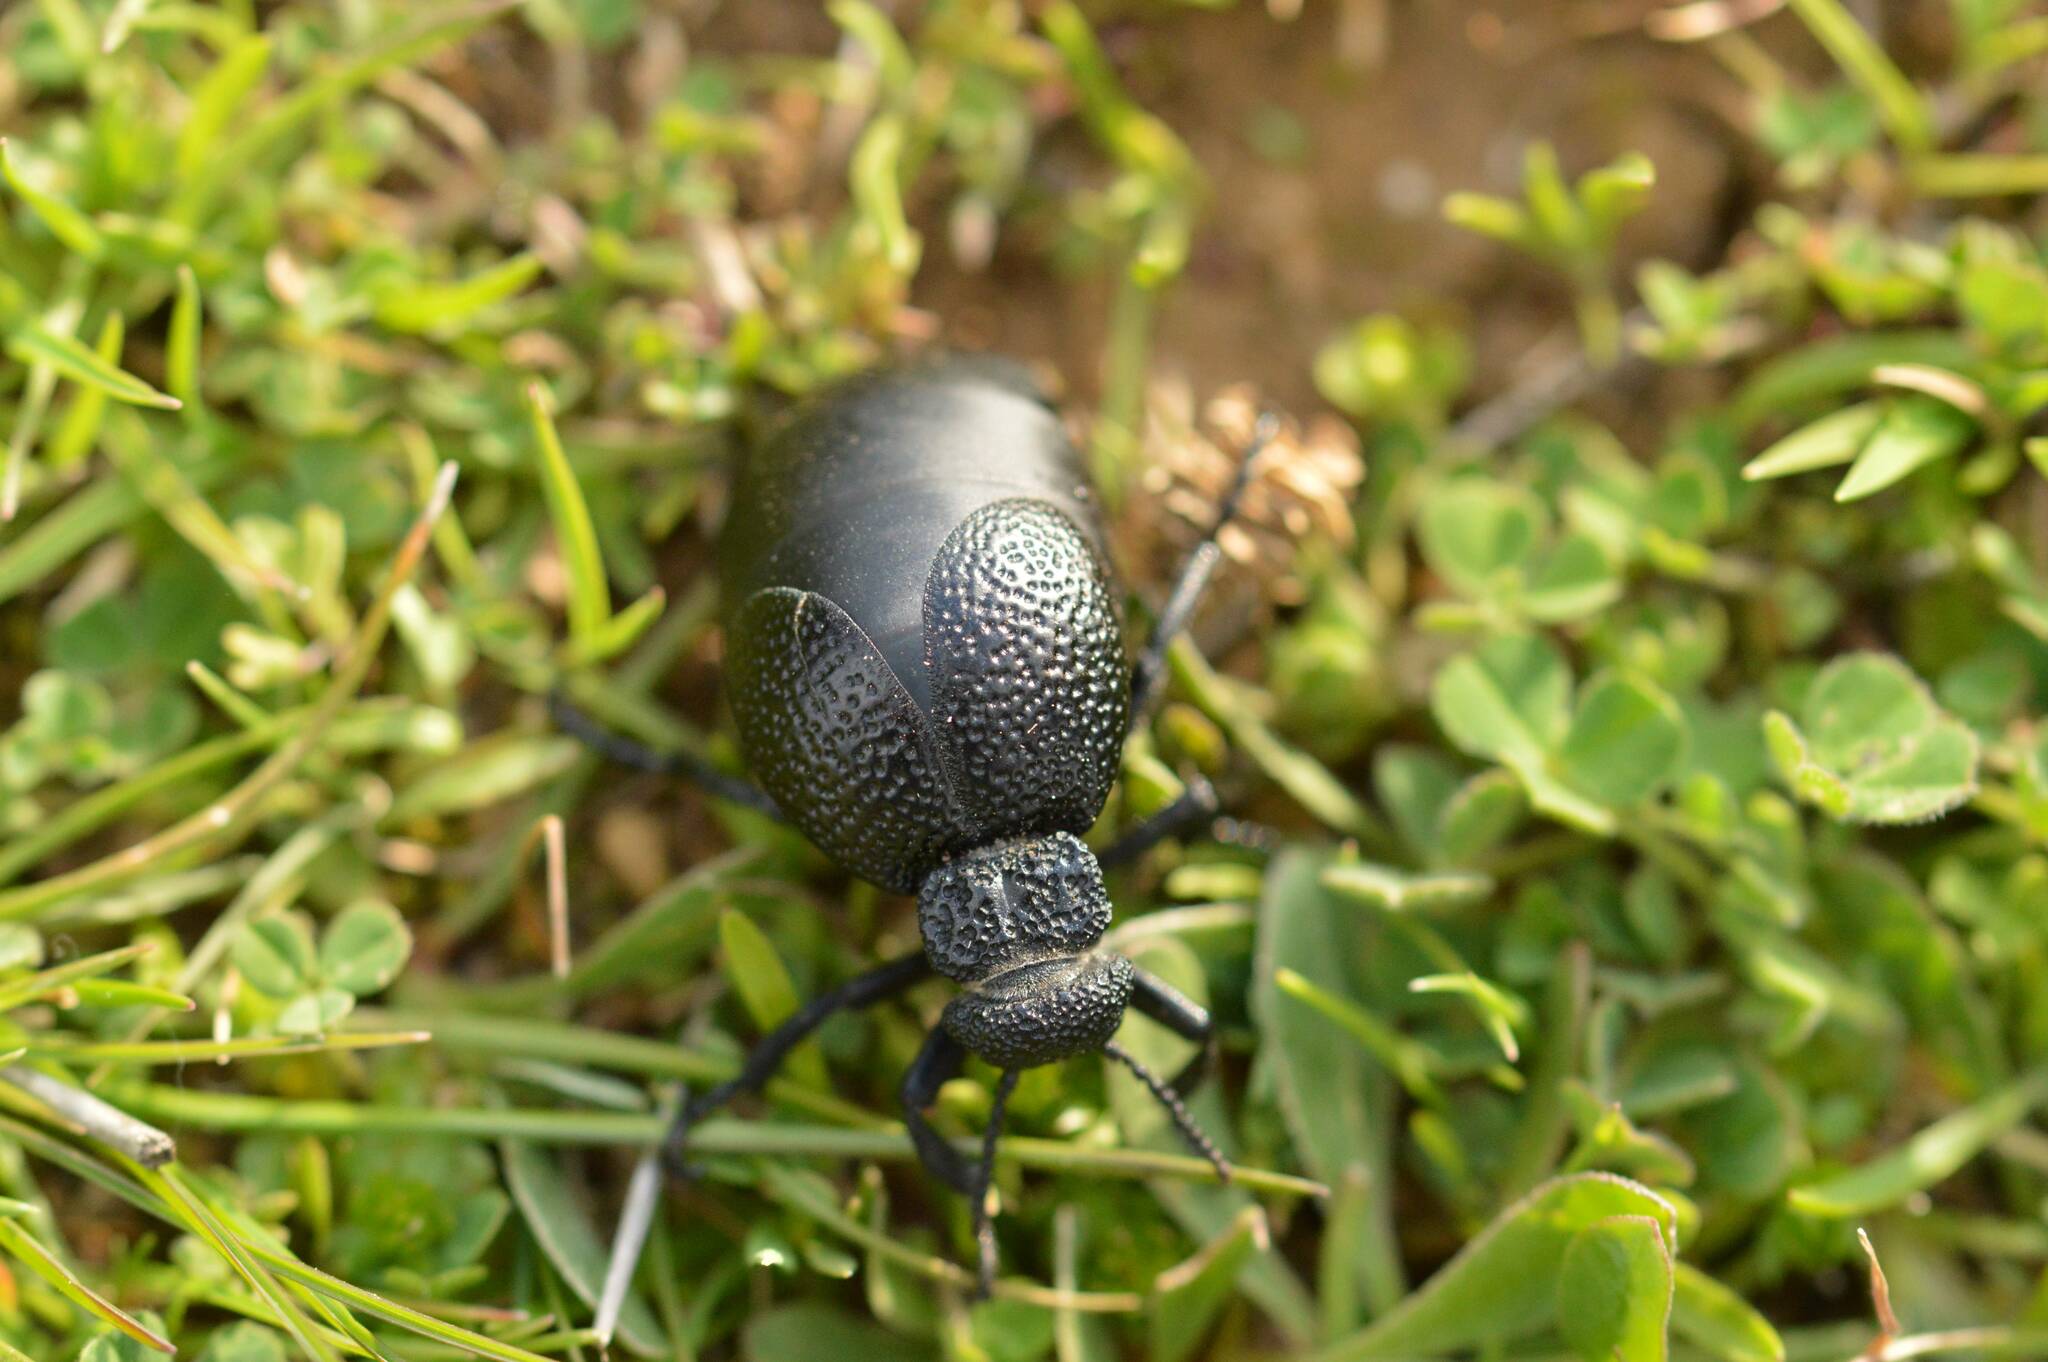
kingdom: Animalia
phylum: Arthropoda
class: Insecta
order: Coleoptera
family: Meloidae
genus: Meloe
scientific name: Meloe tuccius
